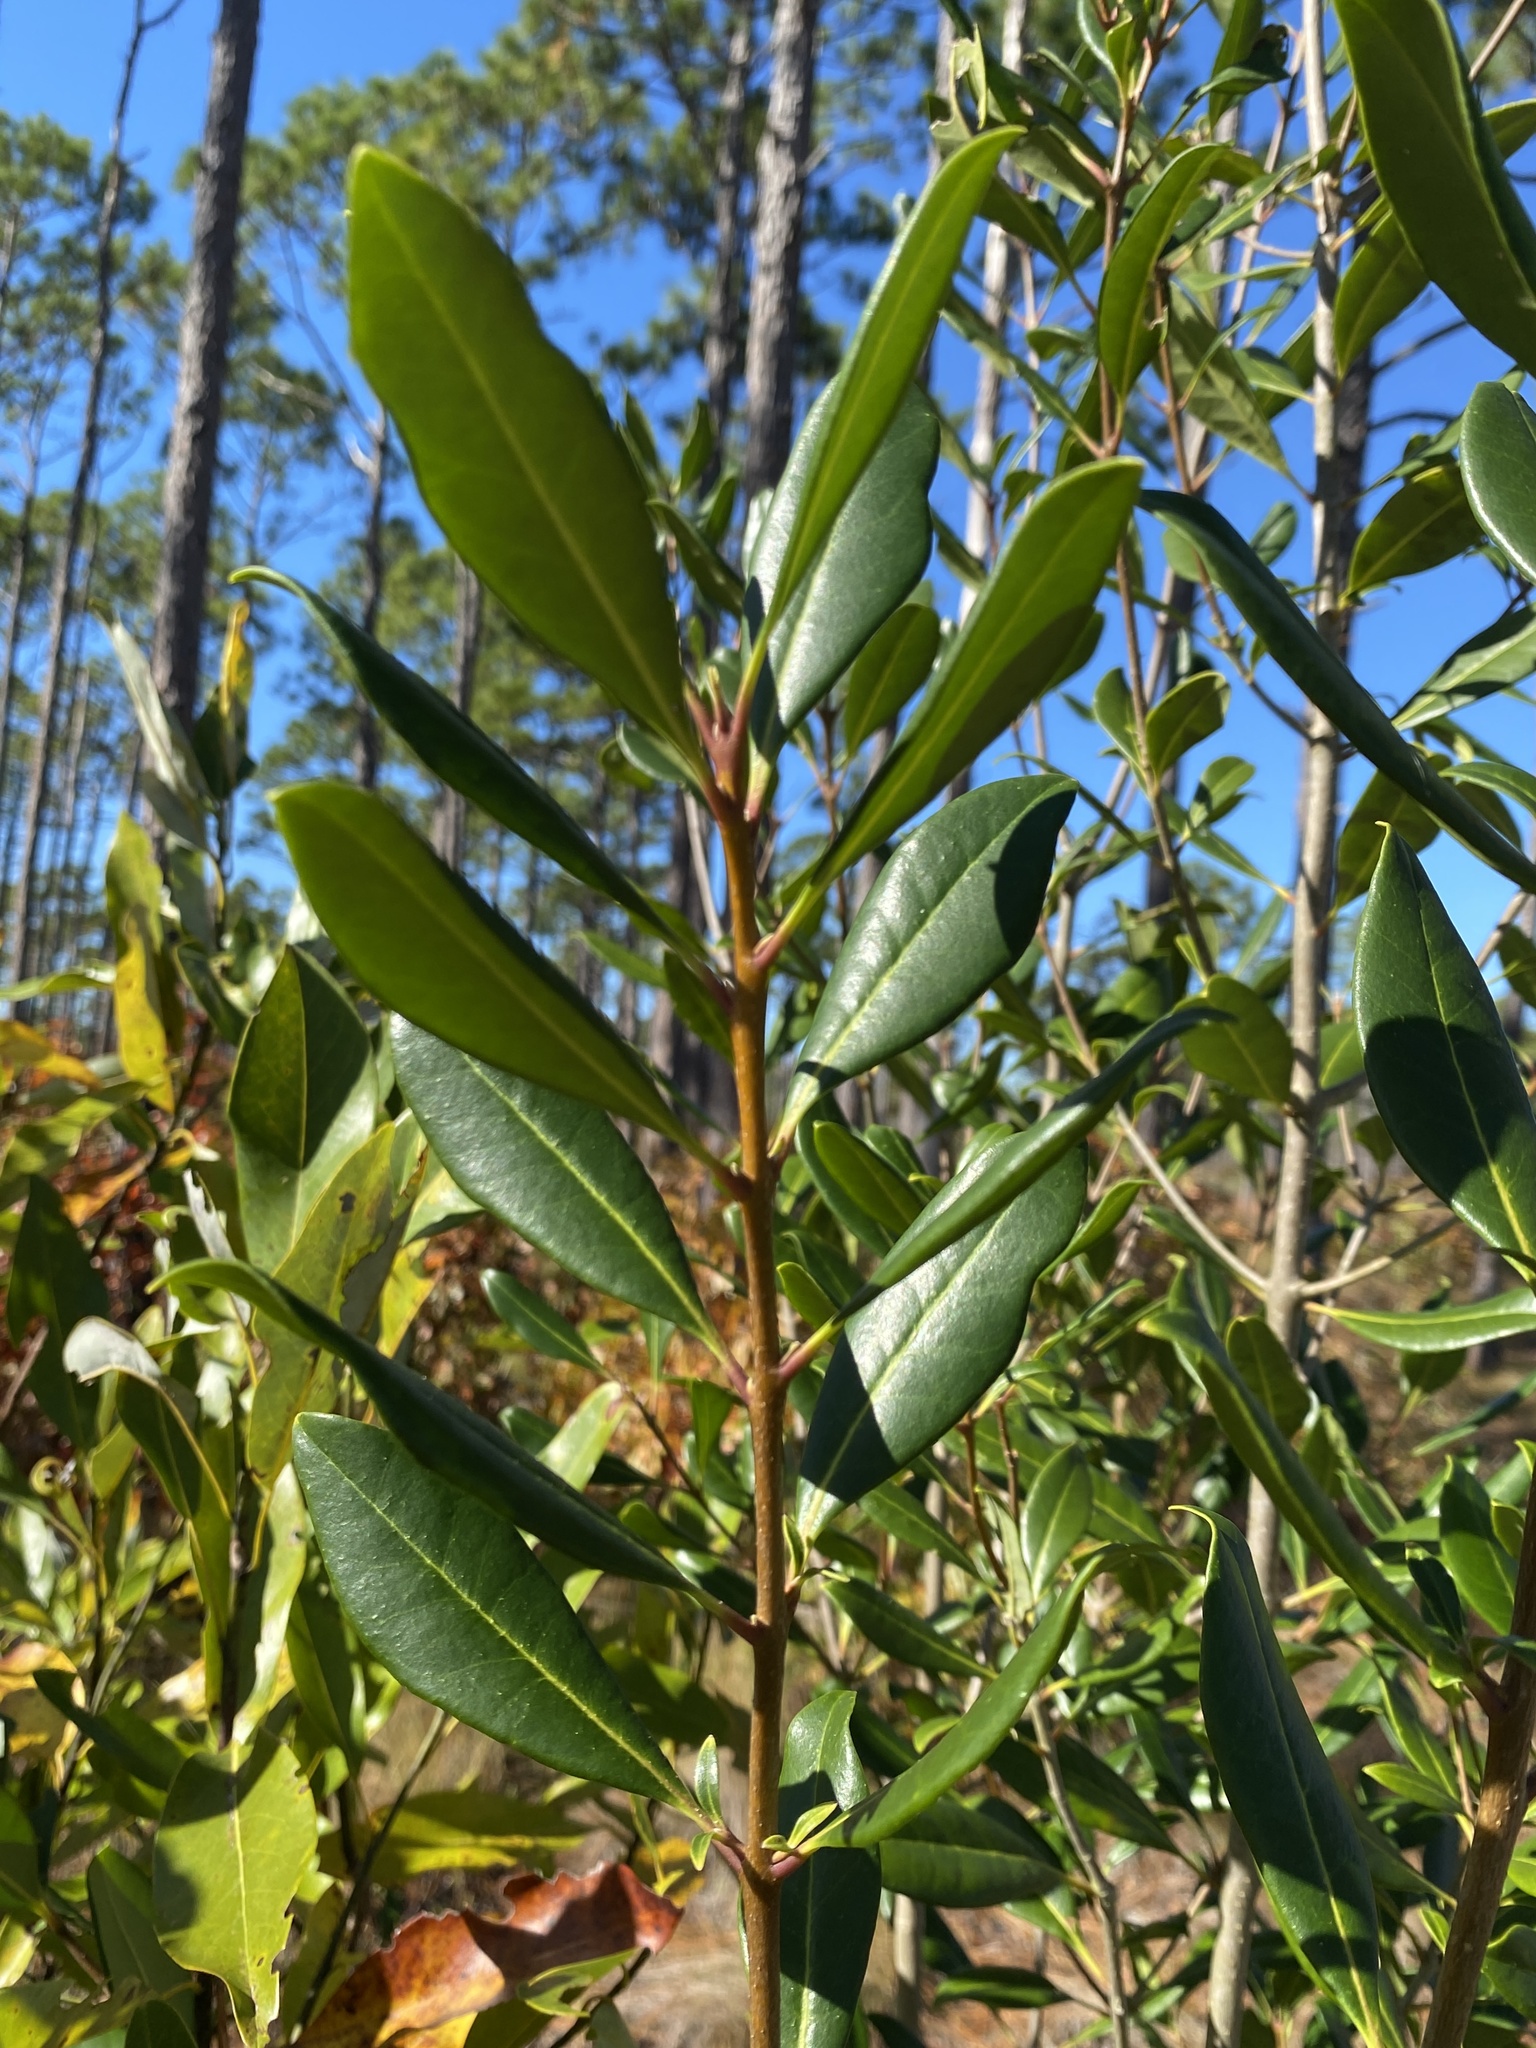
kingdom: Plantae
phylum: Tracheophyta
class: Magnoliopsida
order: Lamiales
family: Oleaceae
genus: Cartrema
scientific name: Cartrema americana
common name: Devilwood
